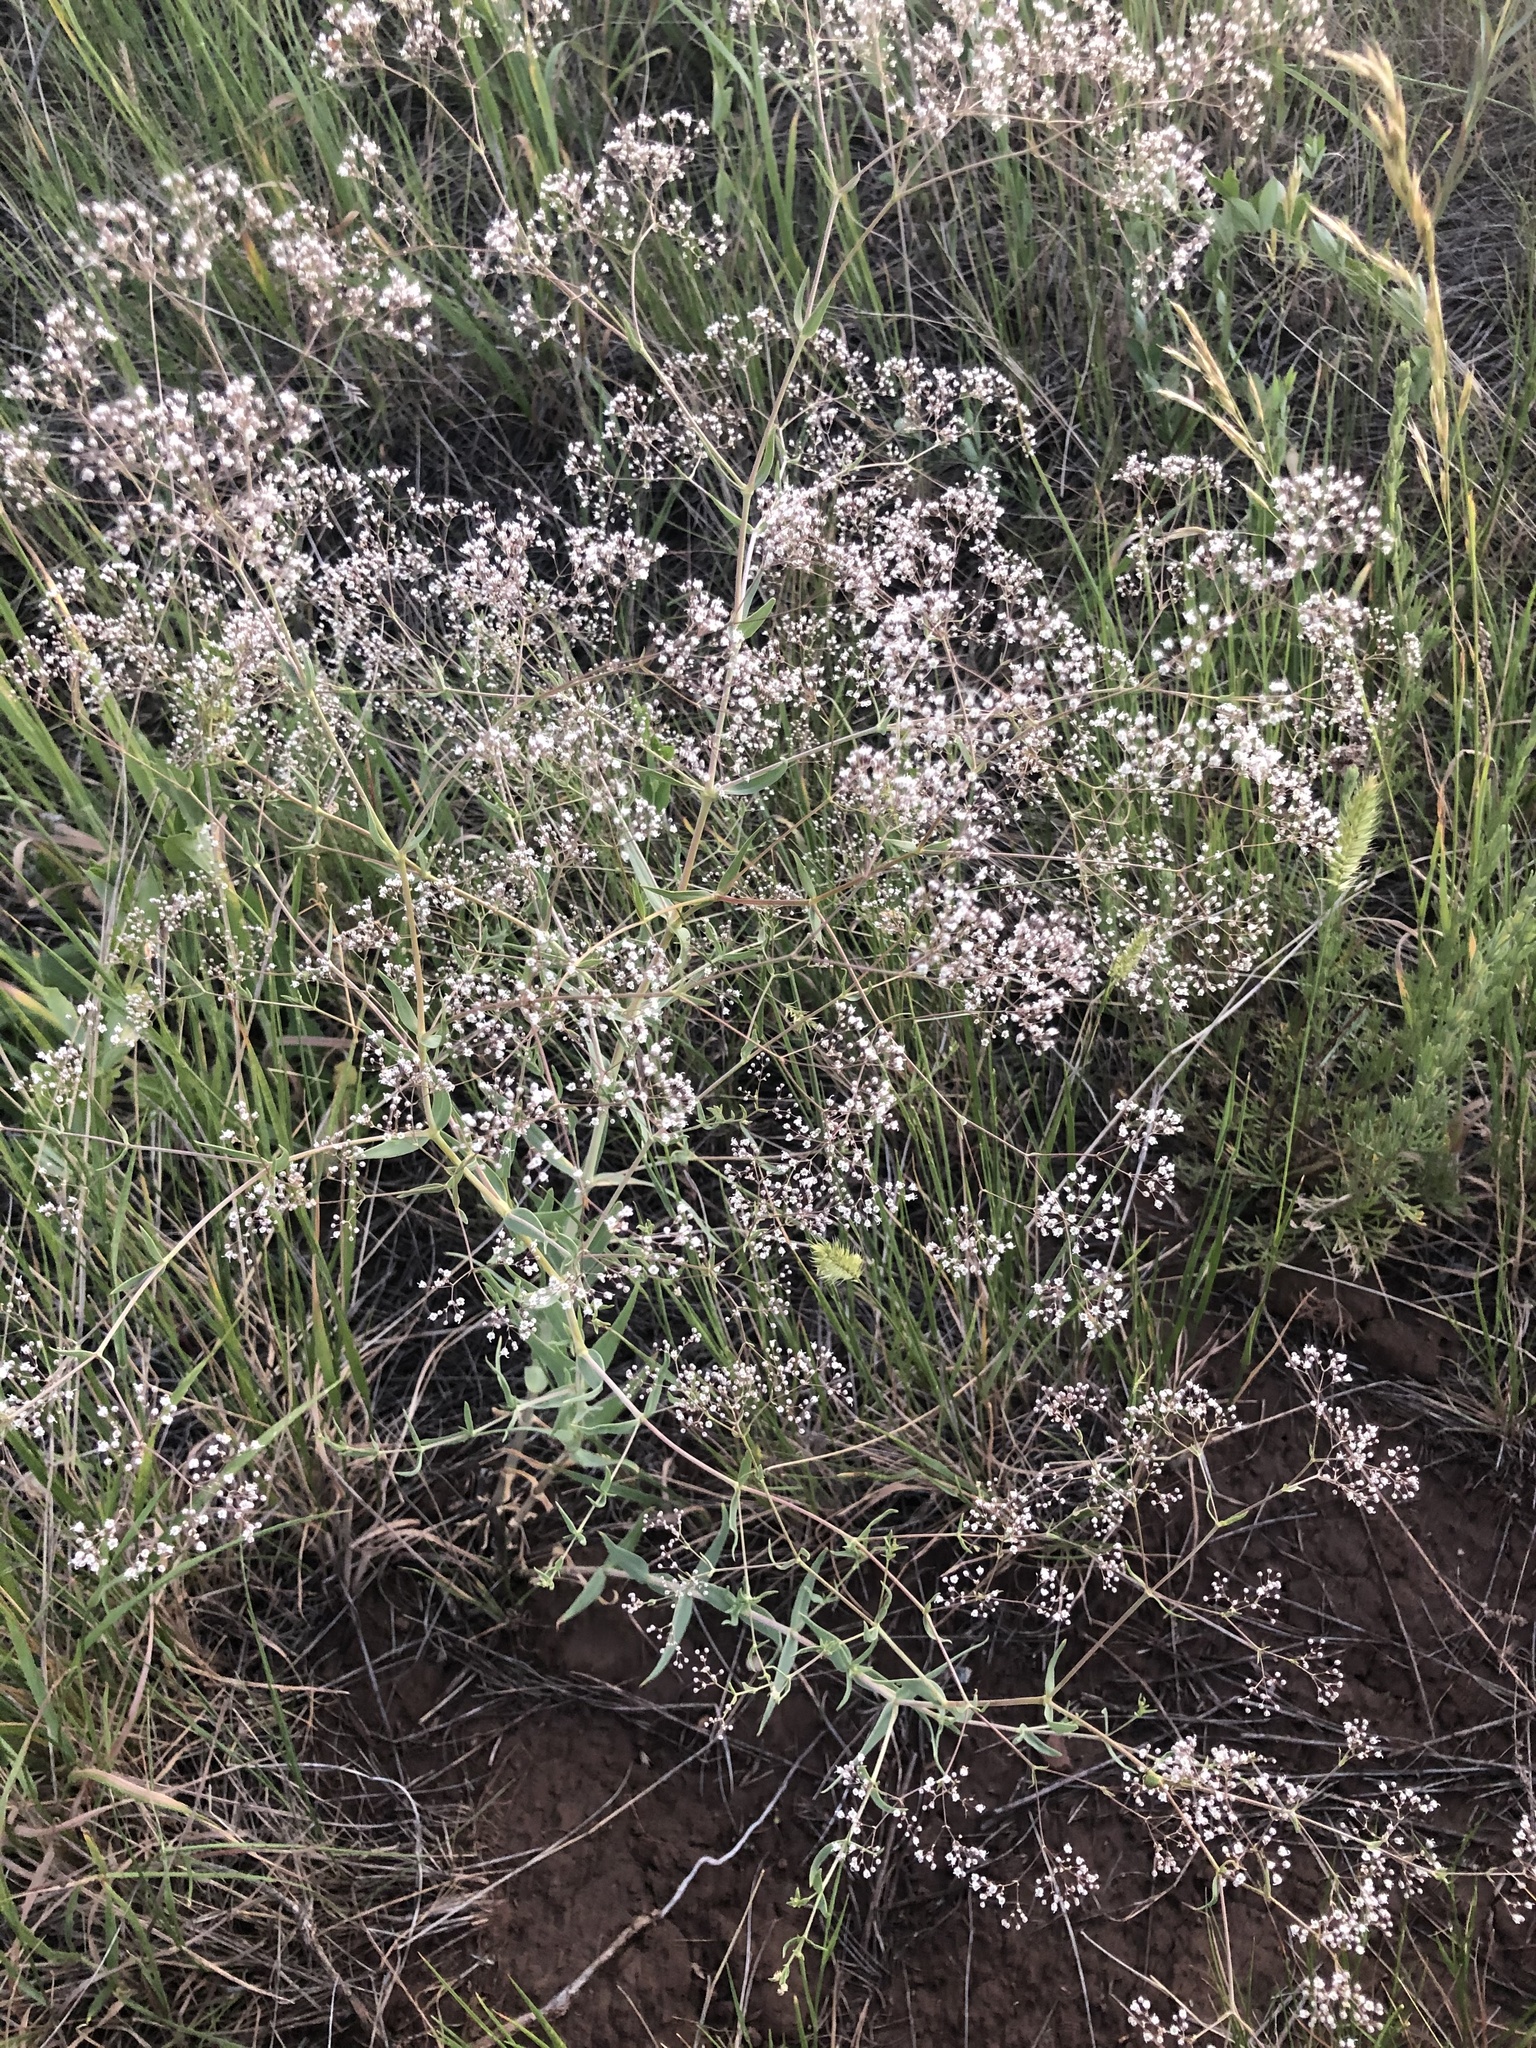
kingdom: Plantae
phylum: Tracheophyta
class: Magnoliopsida
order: Caryophyllales
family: Caryophyllaceae
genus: Gypsophila
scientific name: Gypsophila paniculata
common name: Baby's-breath
